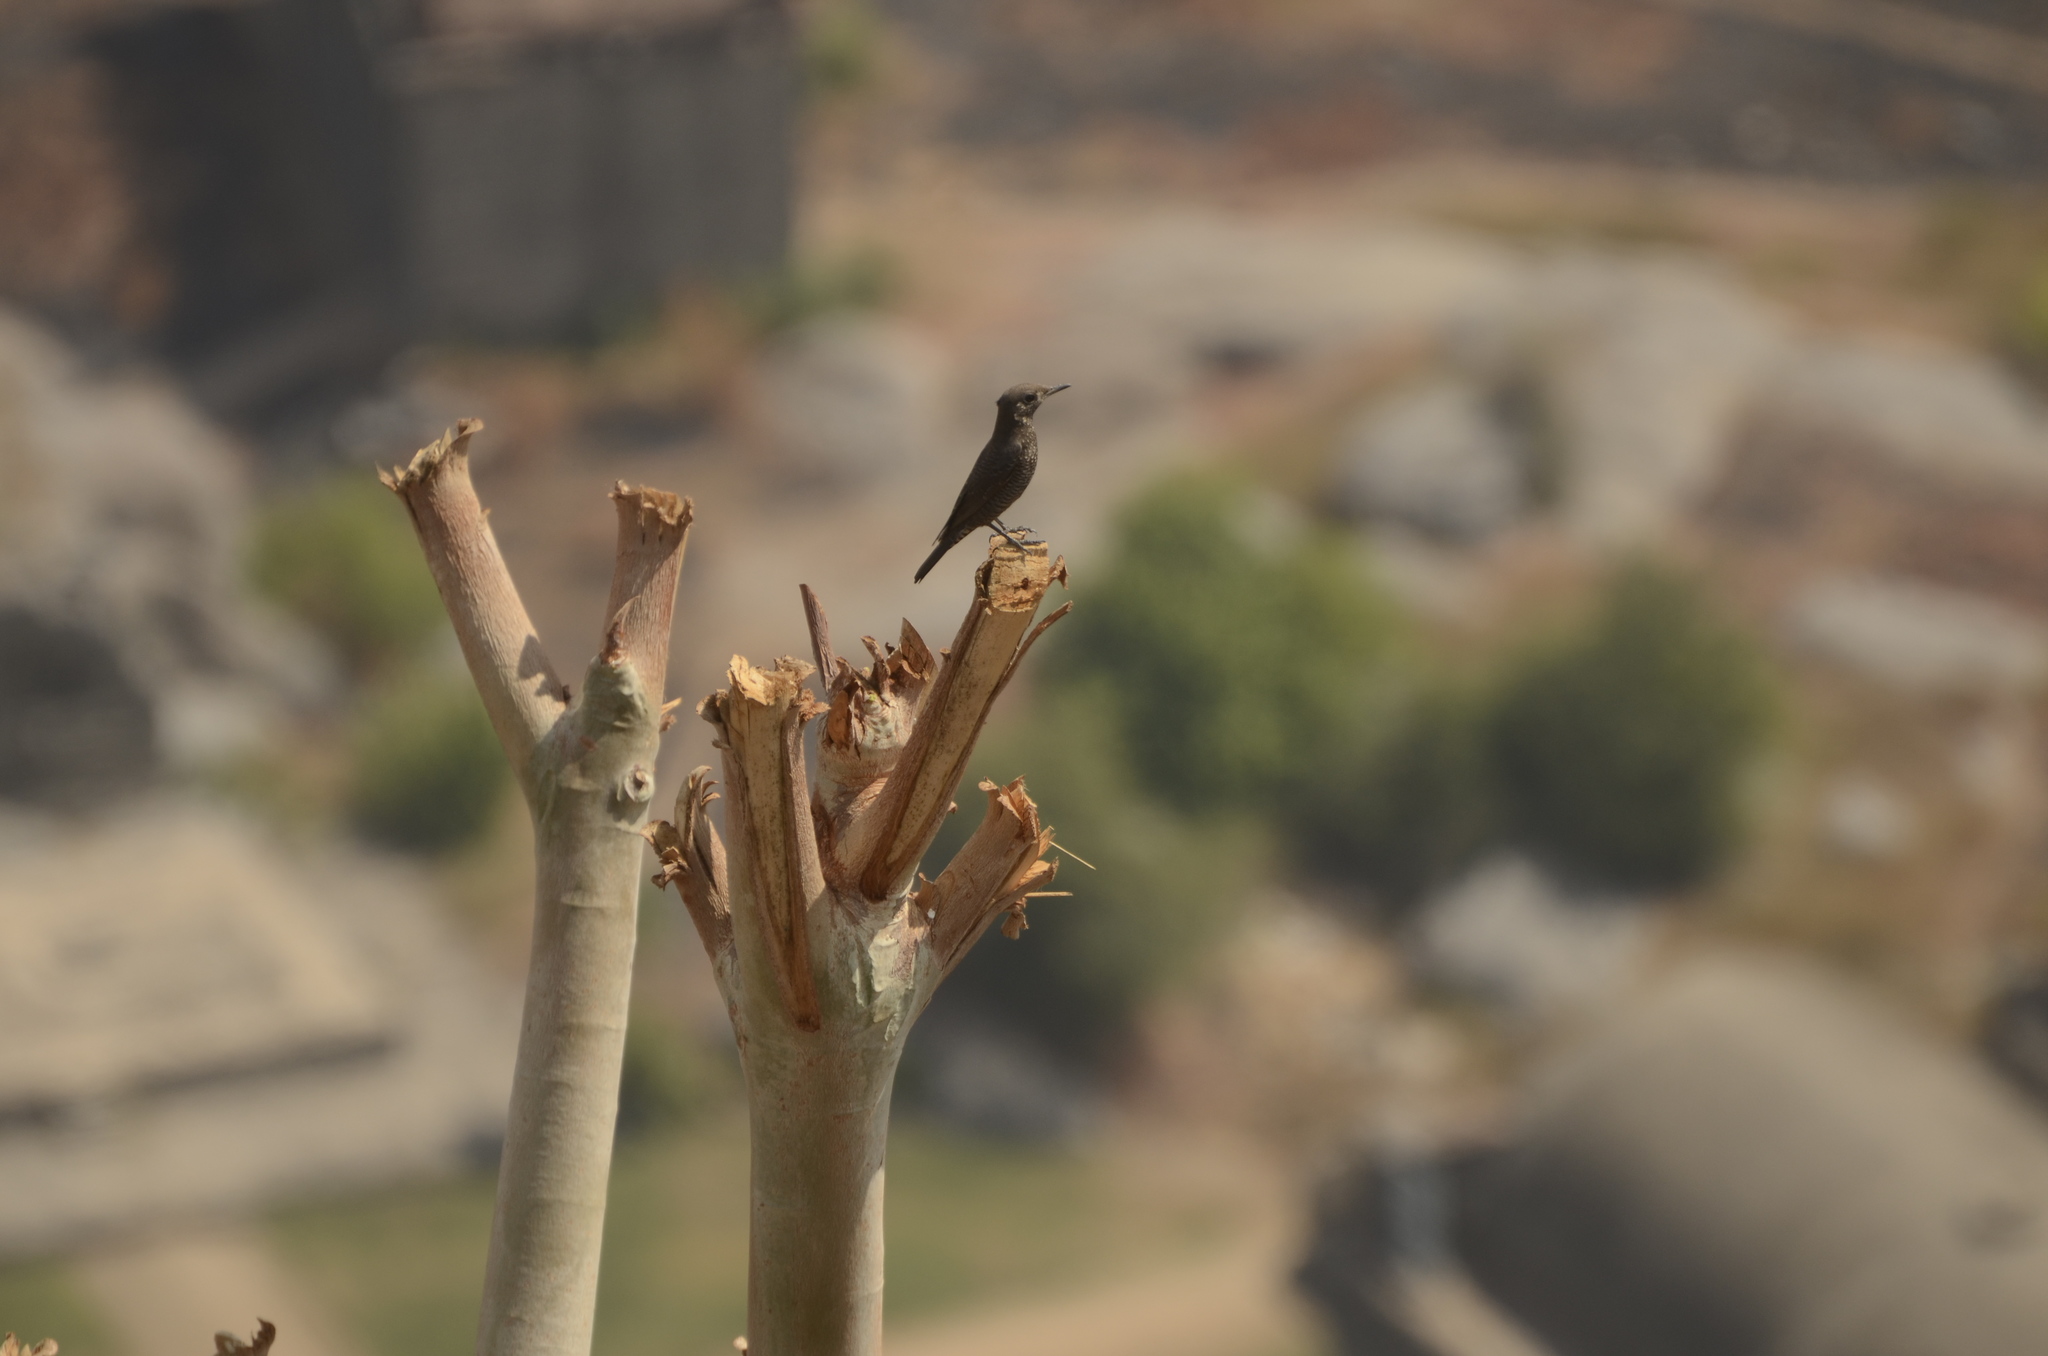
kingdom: Animalia
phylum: Chordata
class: Aves
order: Passeriformes
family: Muscicapidae
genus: Monticola
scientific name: Monticola solitarius
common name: Blue rock thrush
